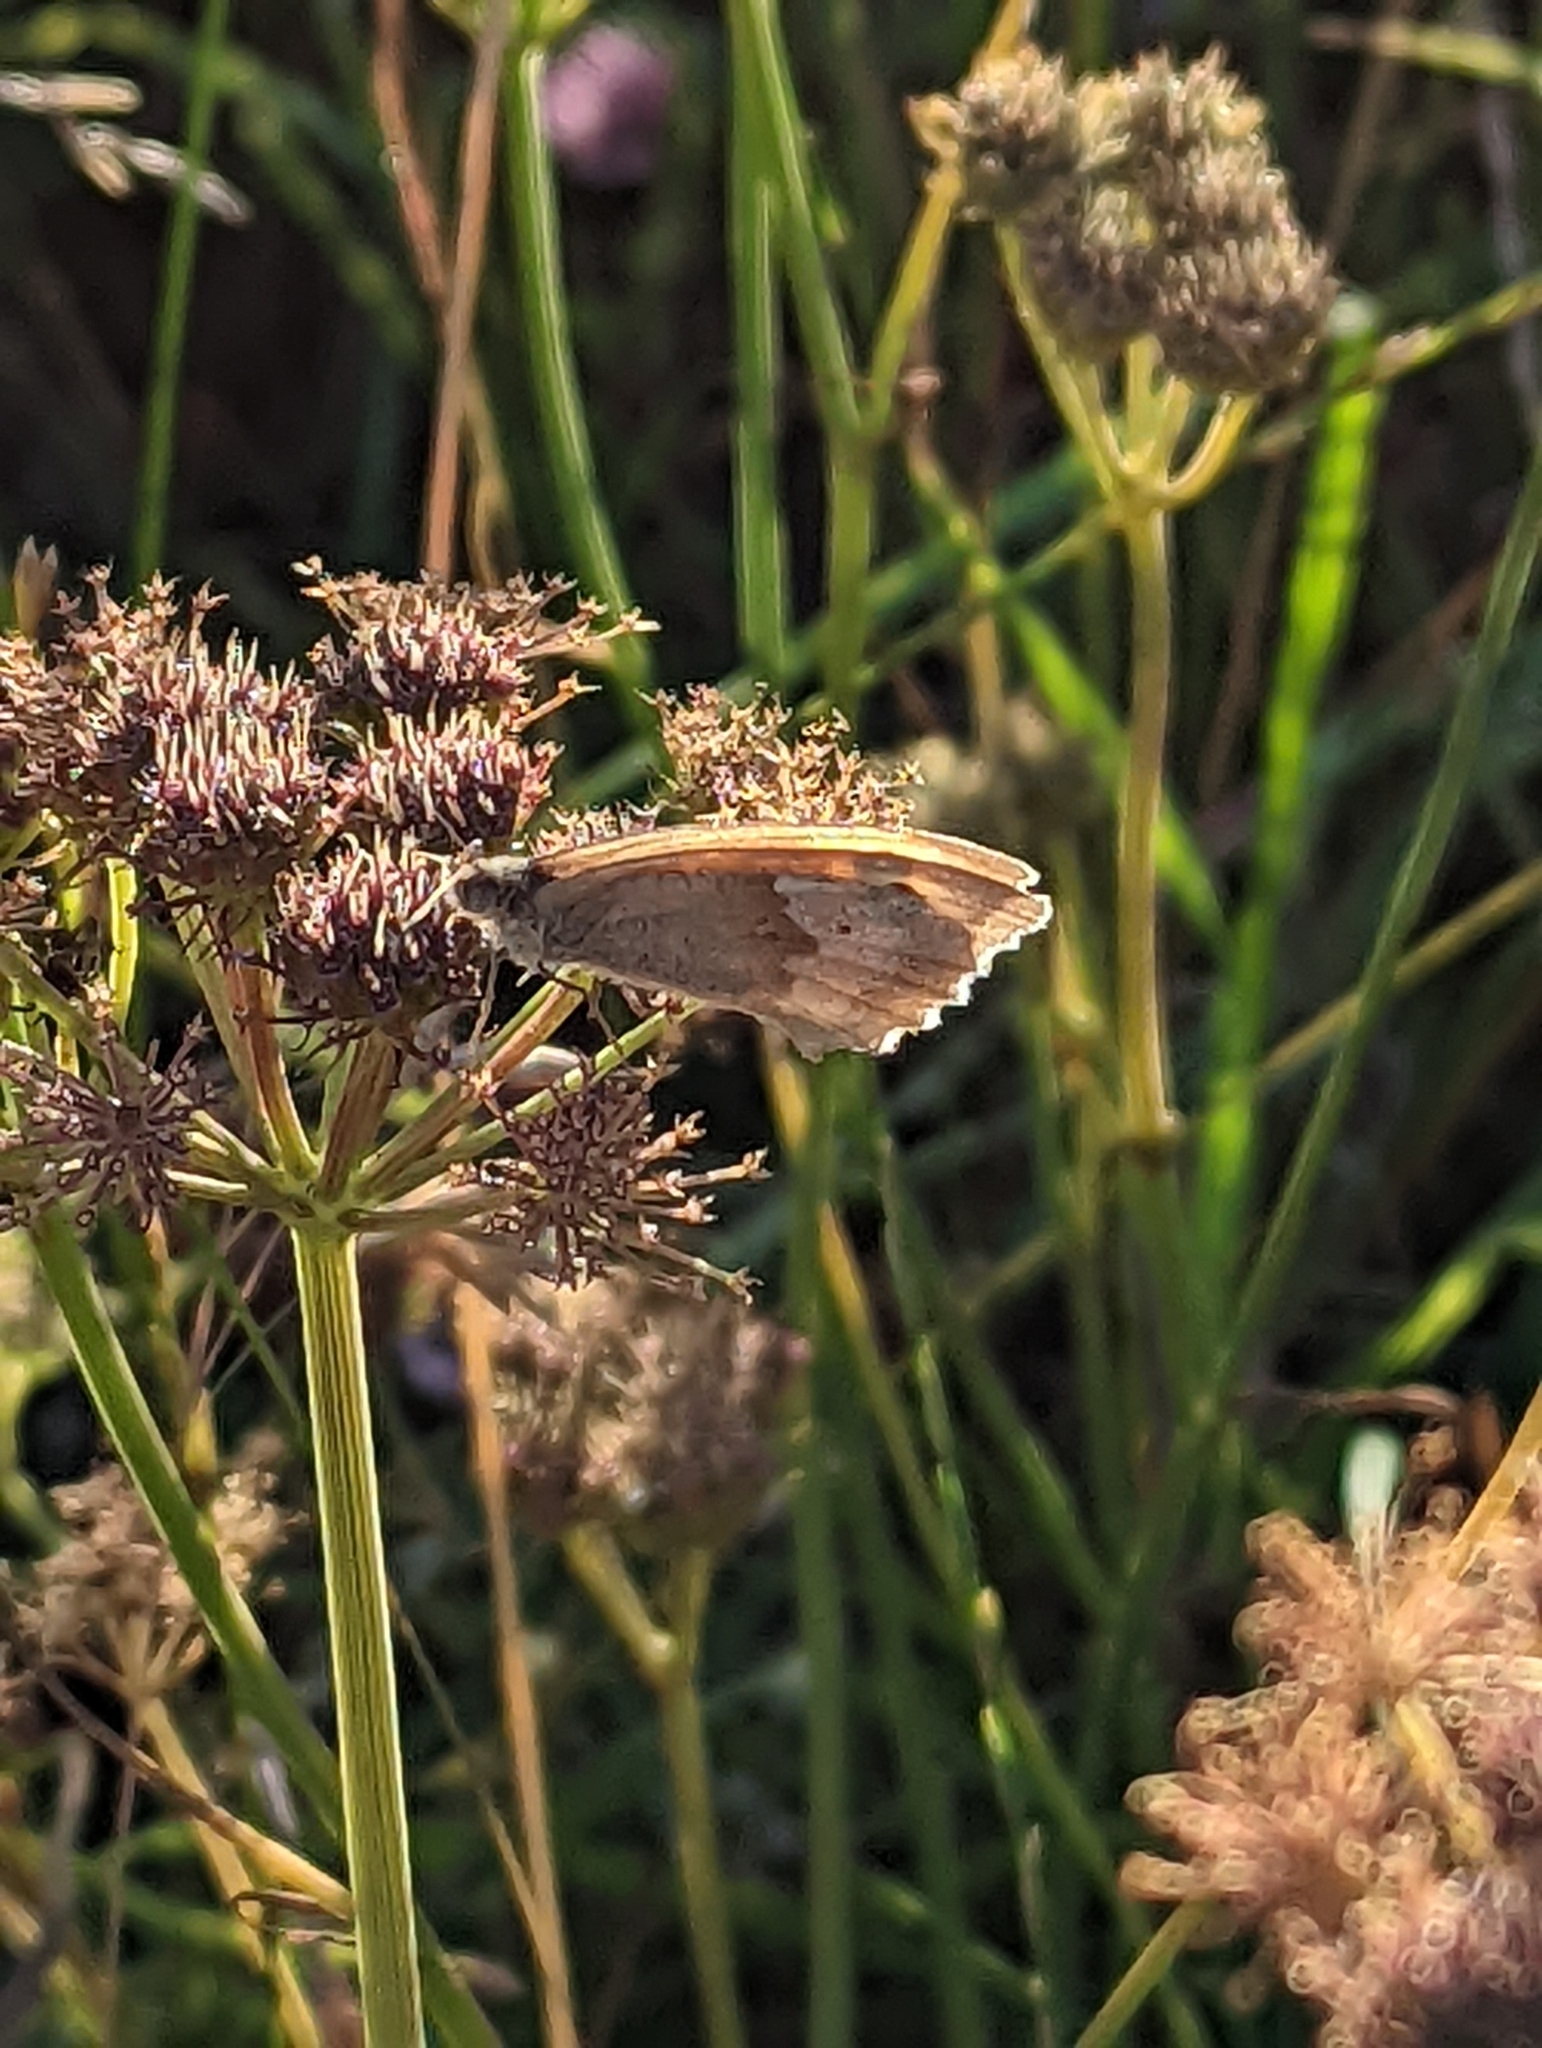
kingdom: Animalia
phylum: Arthropoda
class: Insecta
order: Lepidoptera
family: Nymphalidae
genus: Maniola
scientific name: Maniola jurtina
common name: Meadow brown
